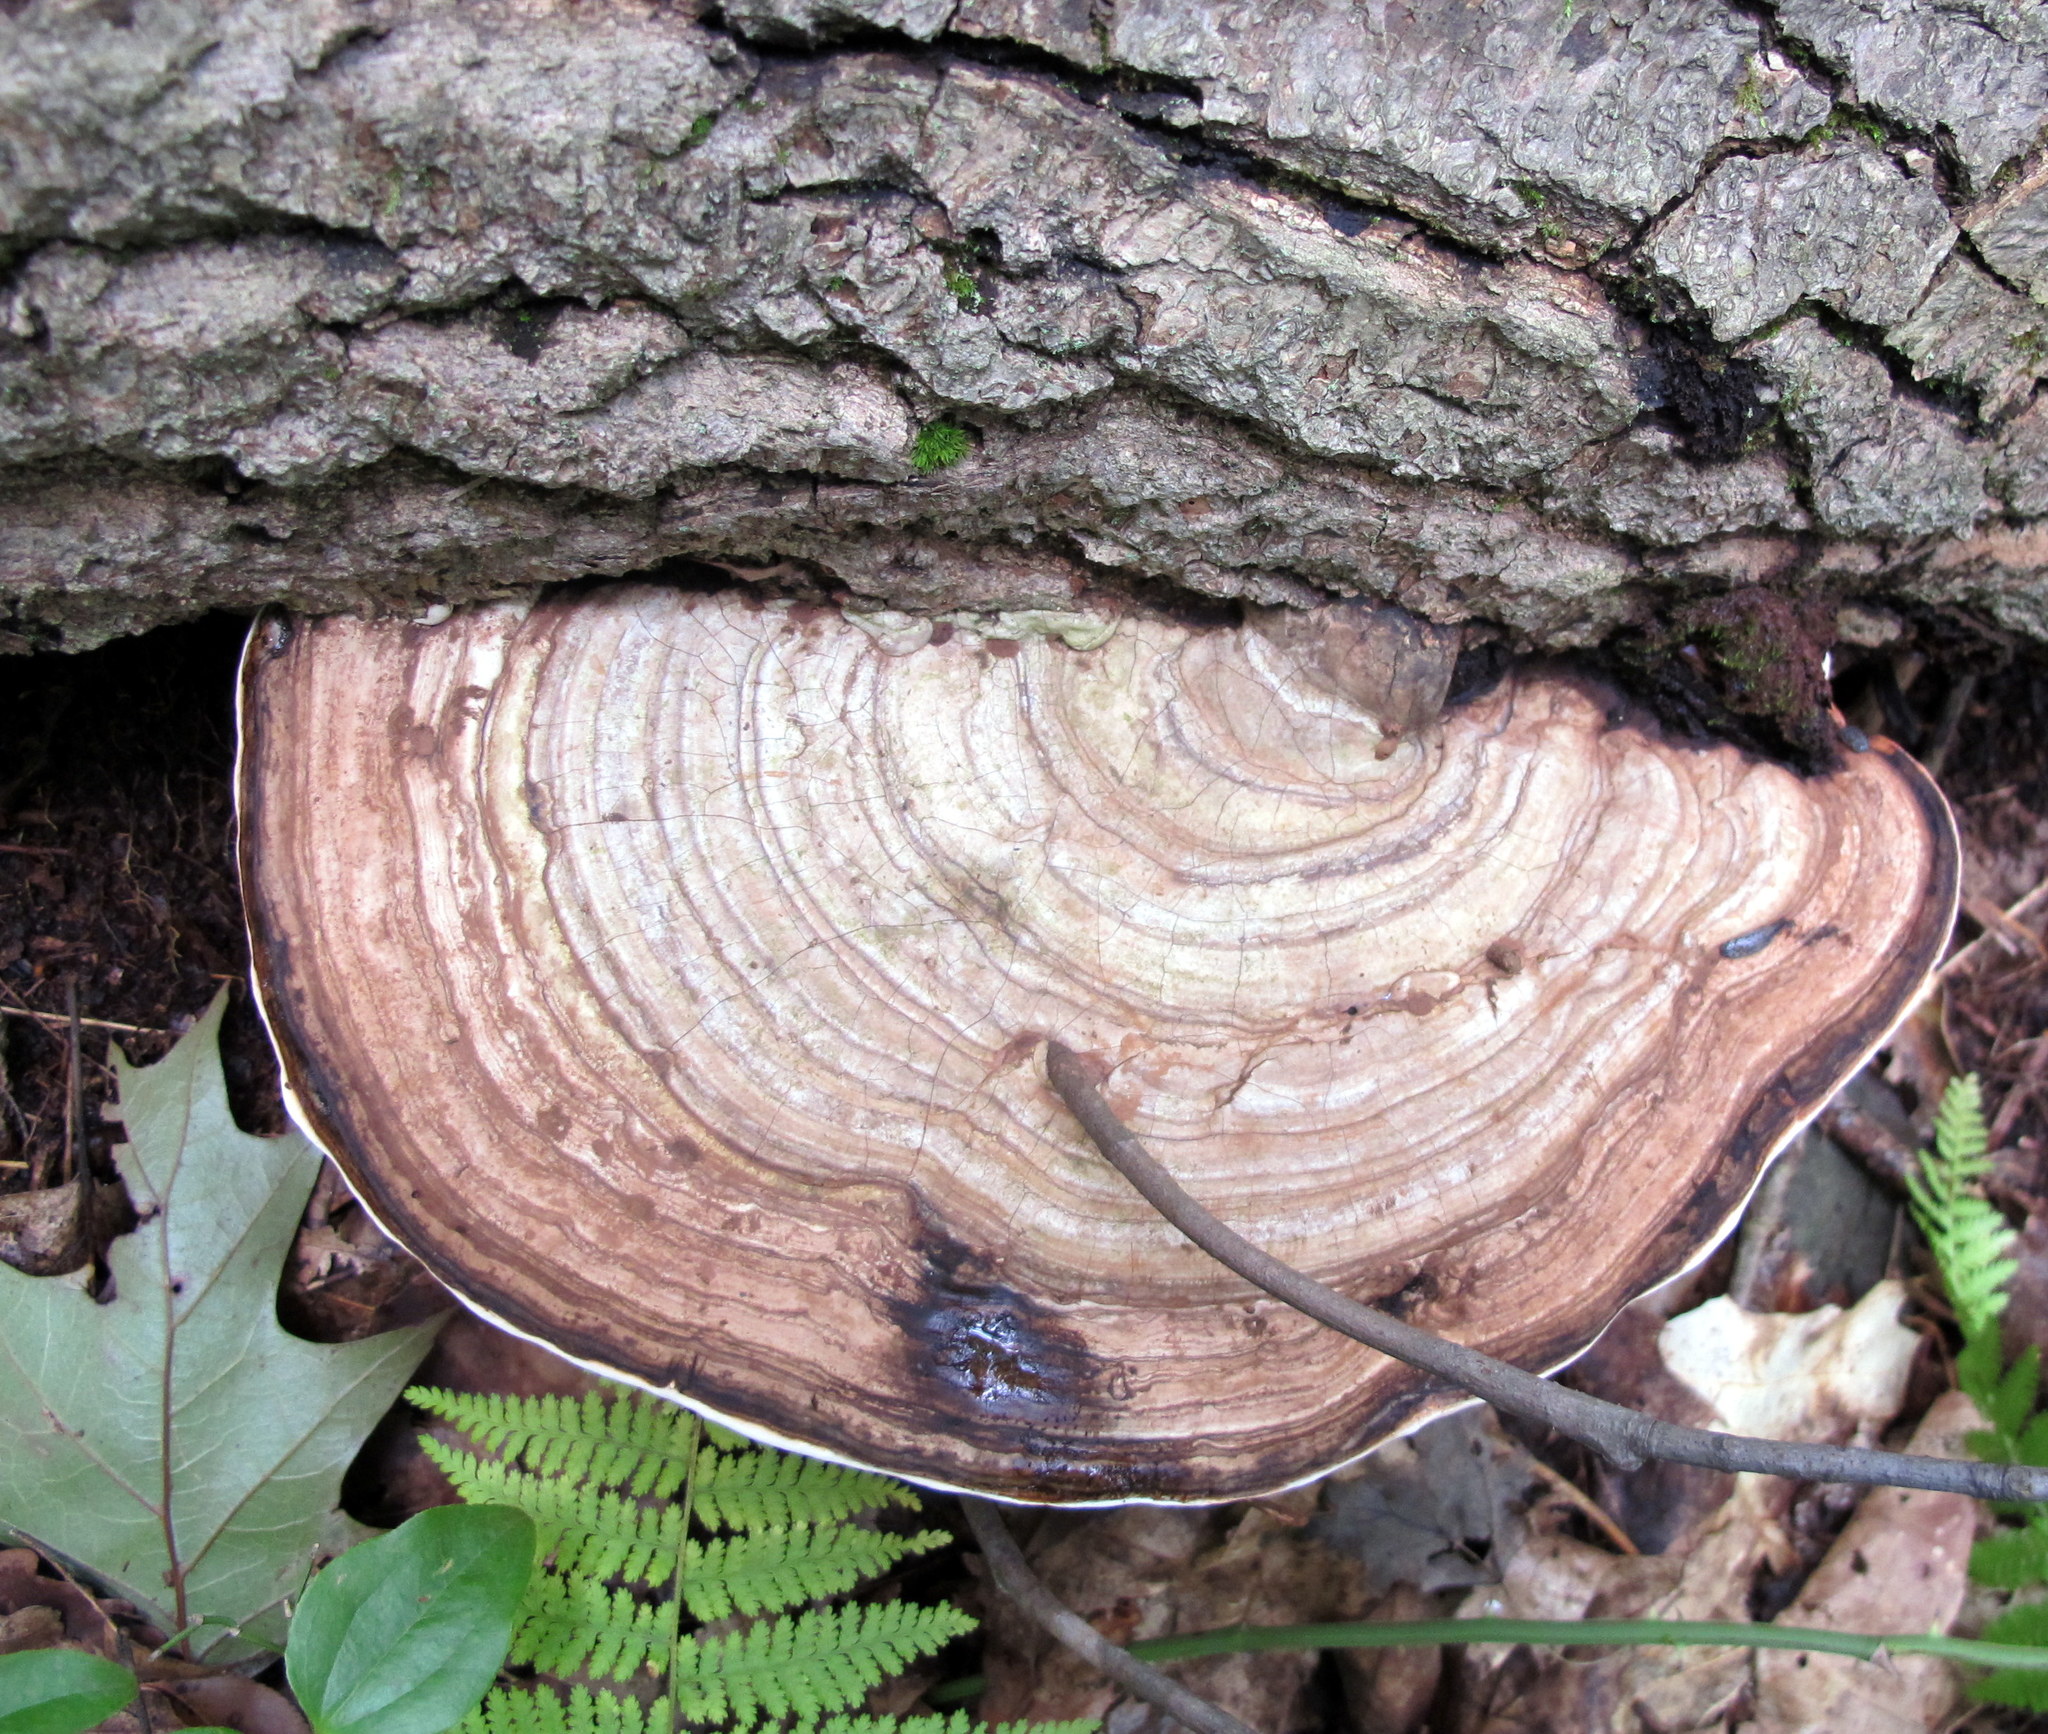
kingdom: Fungi
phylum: Basidiomycota
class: Agaricomycetes
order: Polyporales
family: Polyporaceae
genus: Ganoderma
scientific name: Ganoderma applanatum
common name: Artist's bracket
